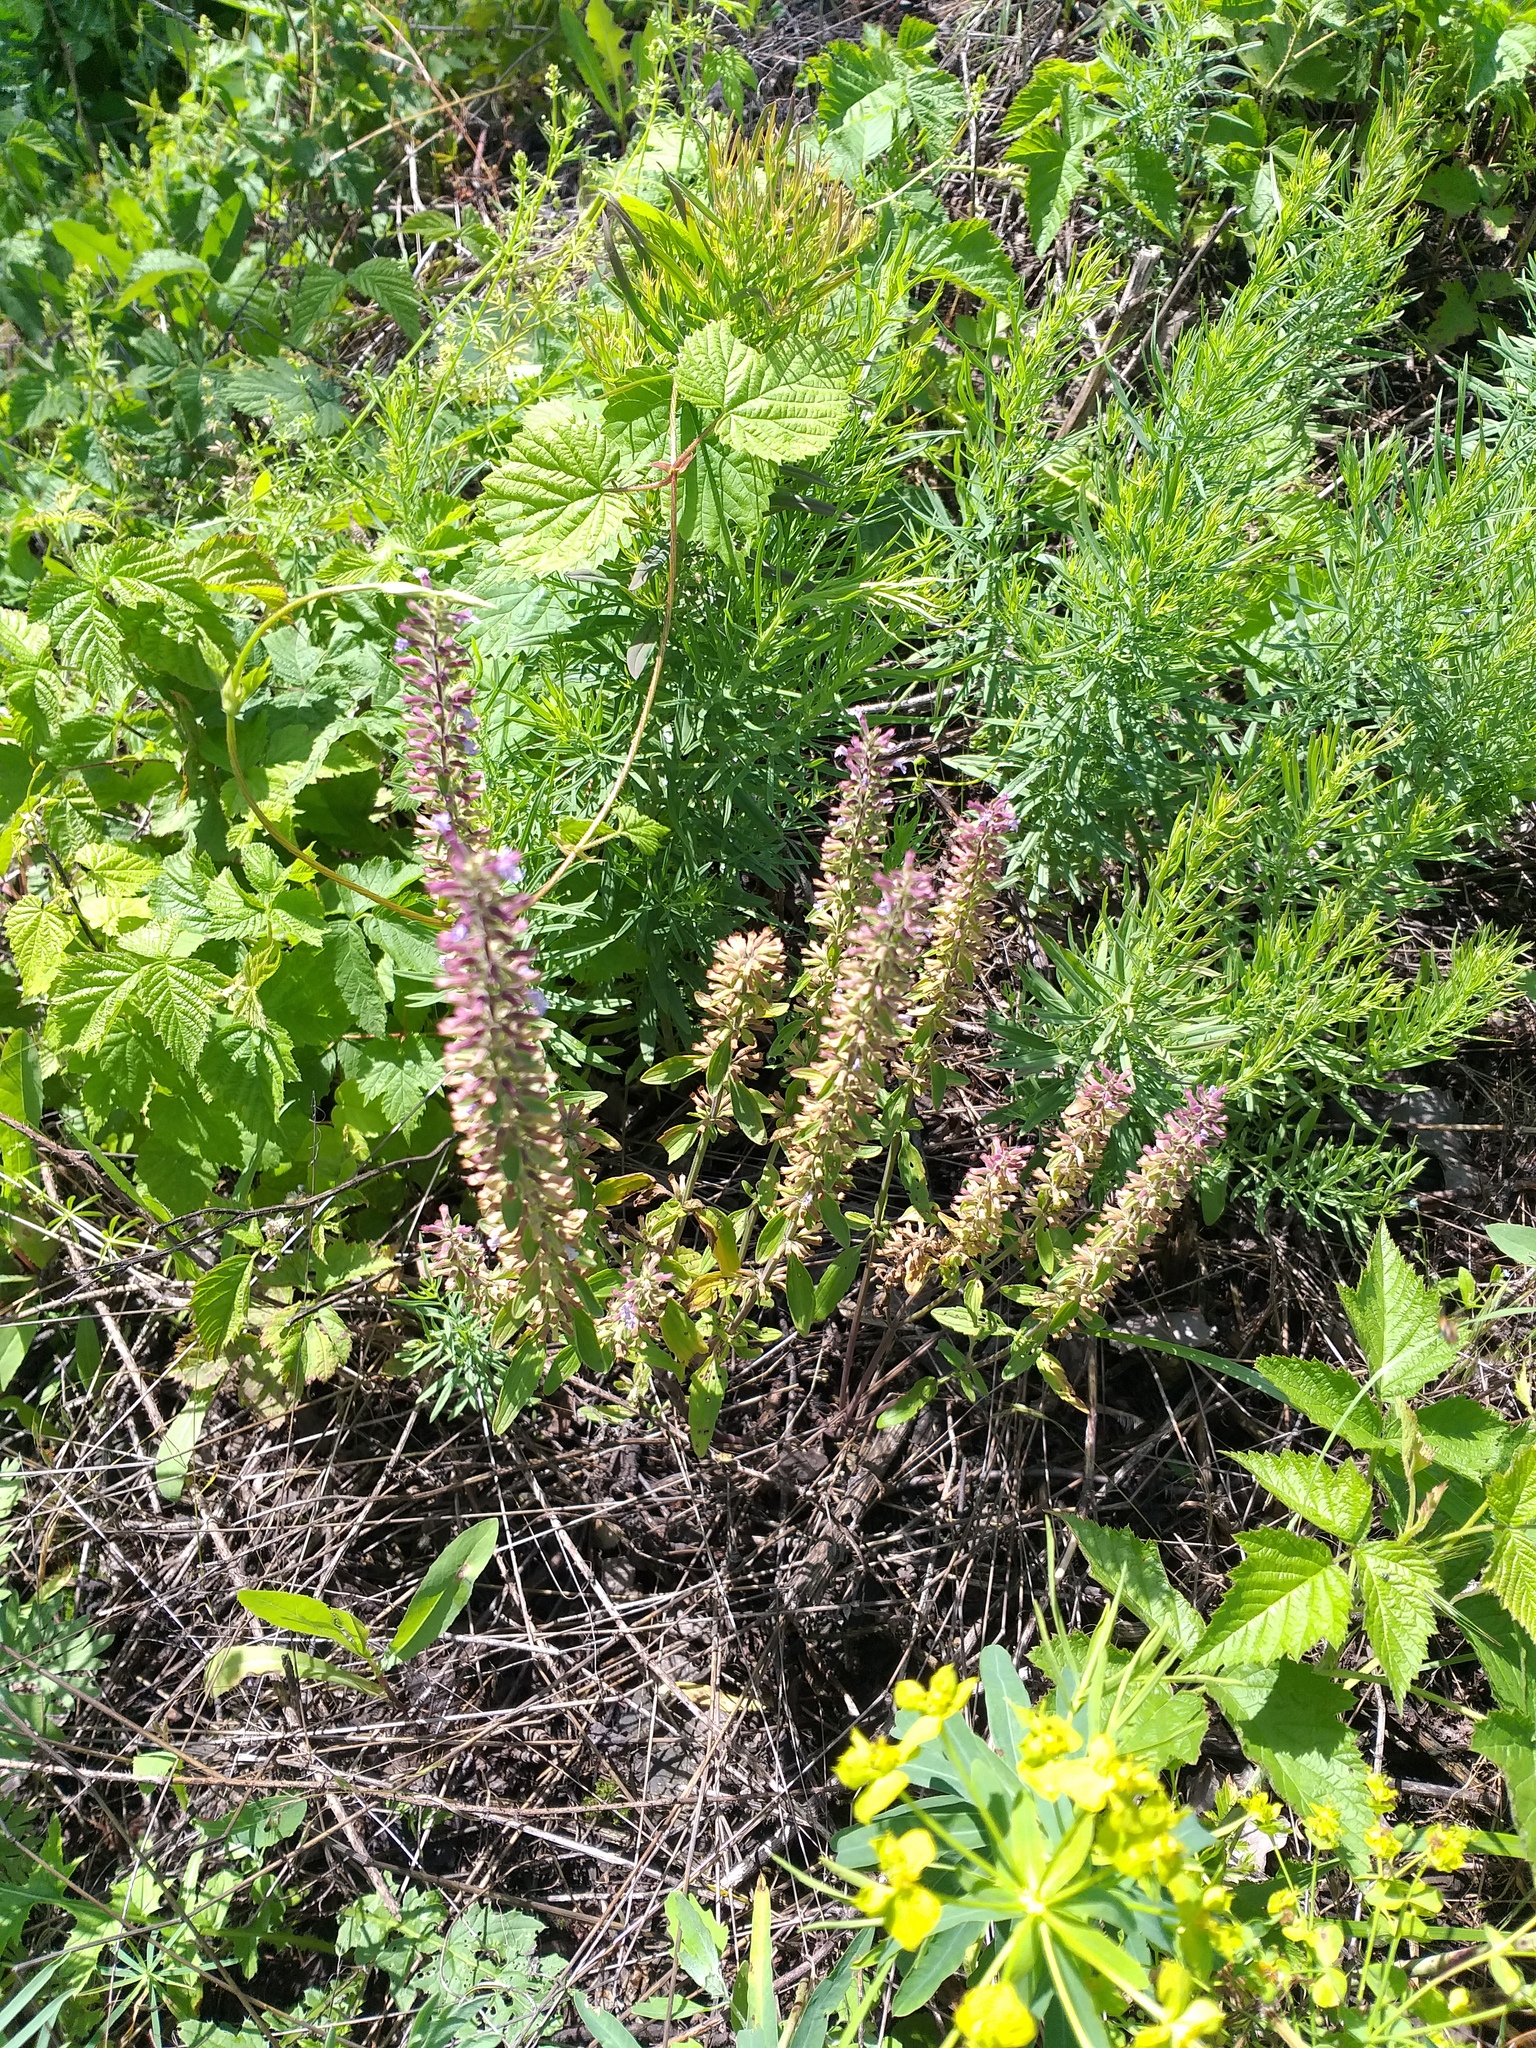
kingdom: Plantae
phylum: Tracheophyta
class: Magnoliopsida
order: Lamiales
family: Lamiaceae
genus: Dracocephalum
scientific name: Dracocephalum thymiflorum
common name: Thymeleaf dragonhead
